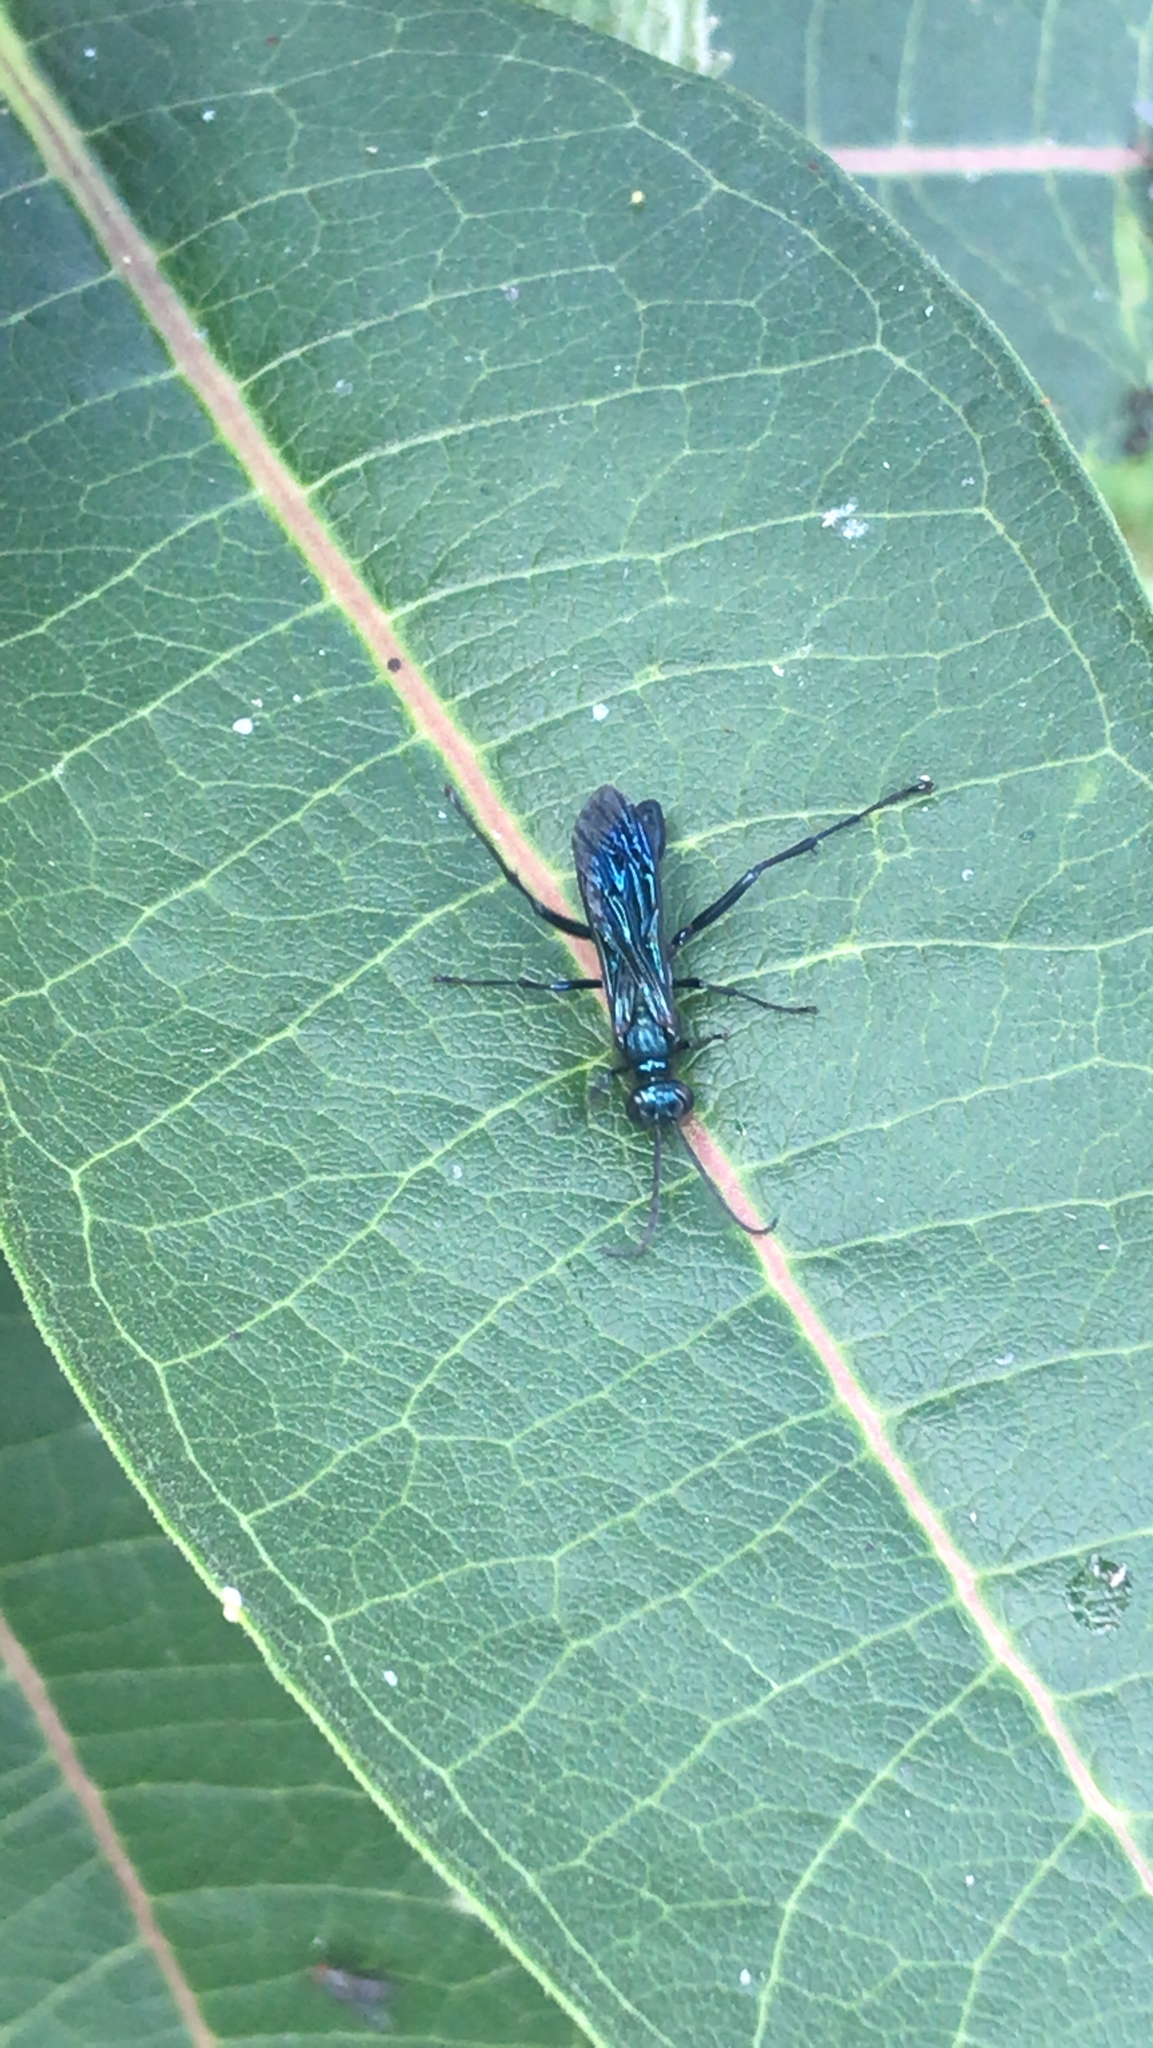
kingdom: Animalia
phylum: Arthropoda
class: Insecta
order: Hymenoptera
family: Sphecidae
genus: Chalybion
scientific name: Chalybion californicum
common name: Mud dauber
